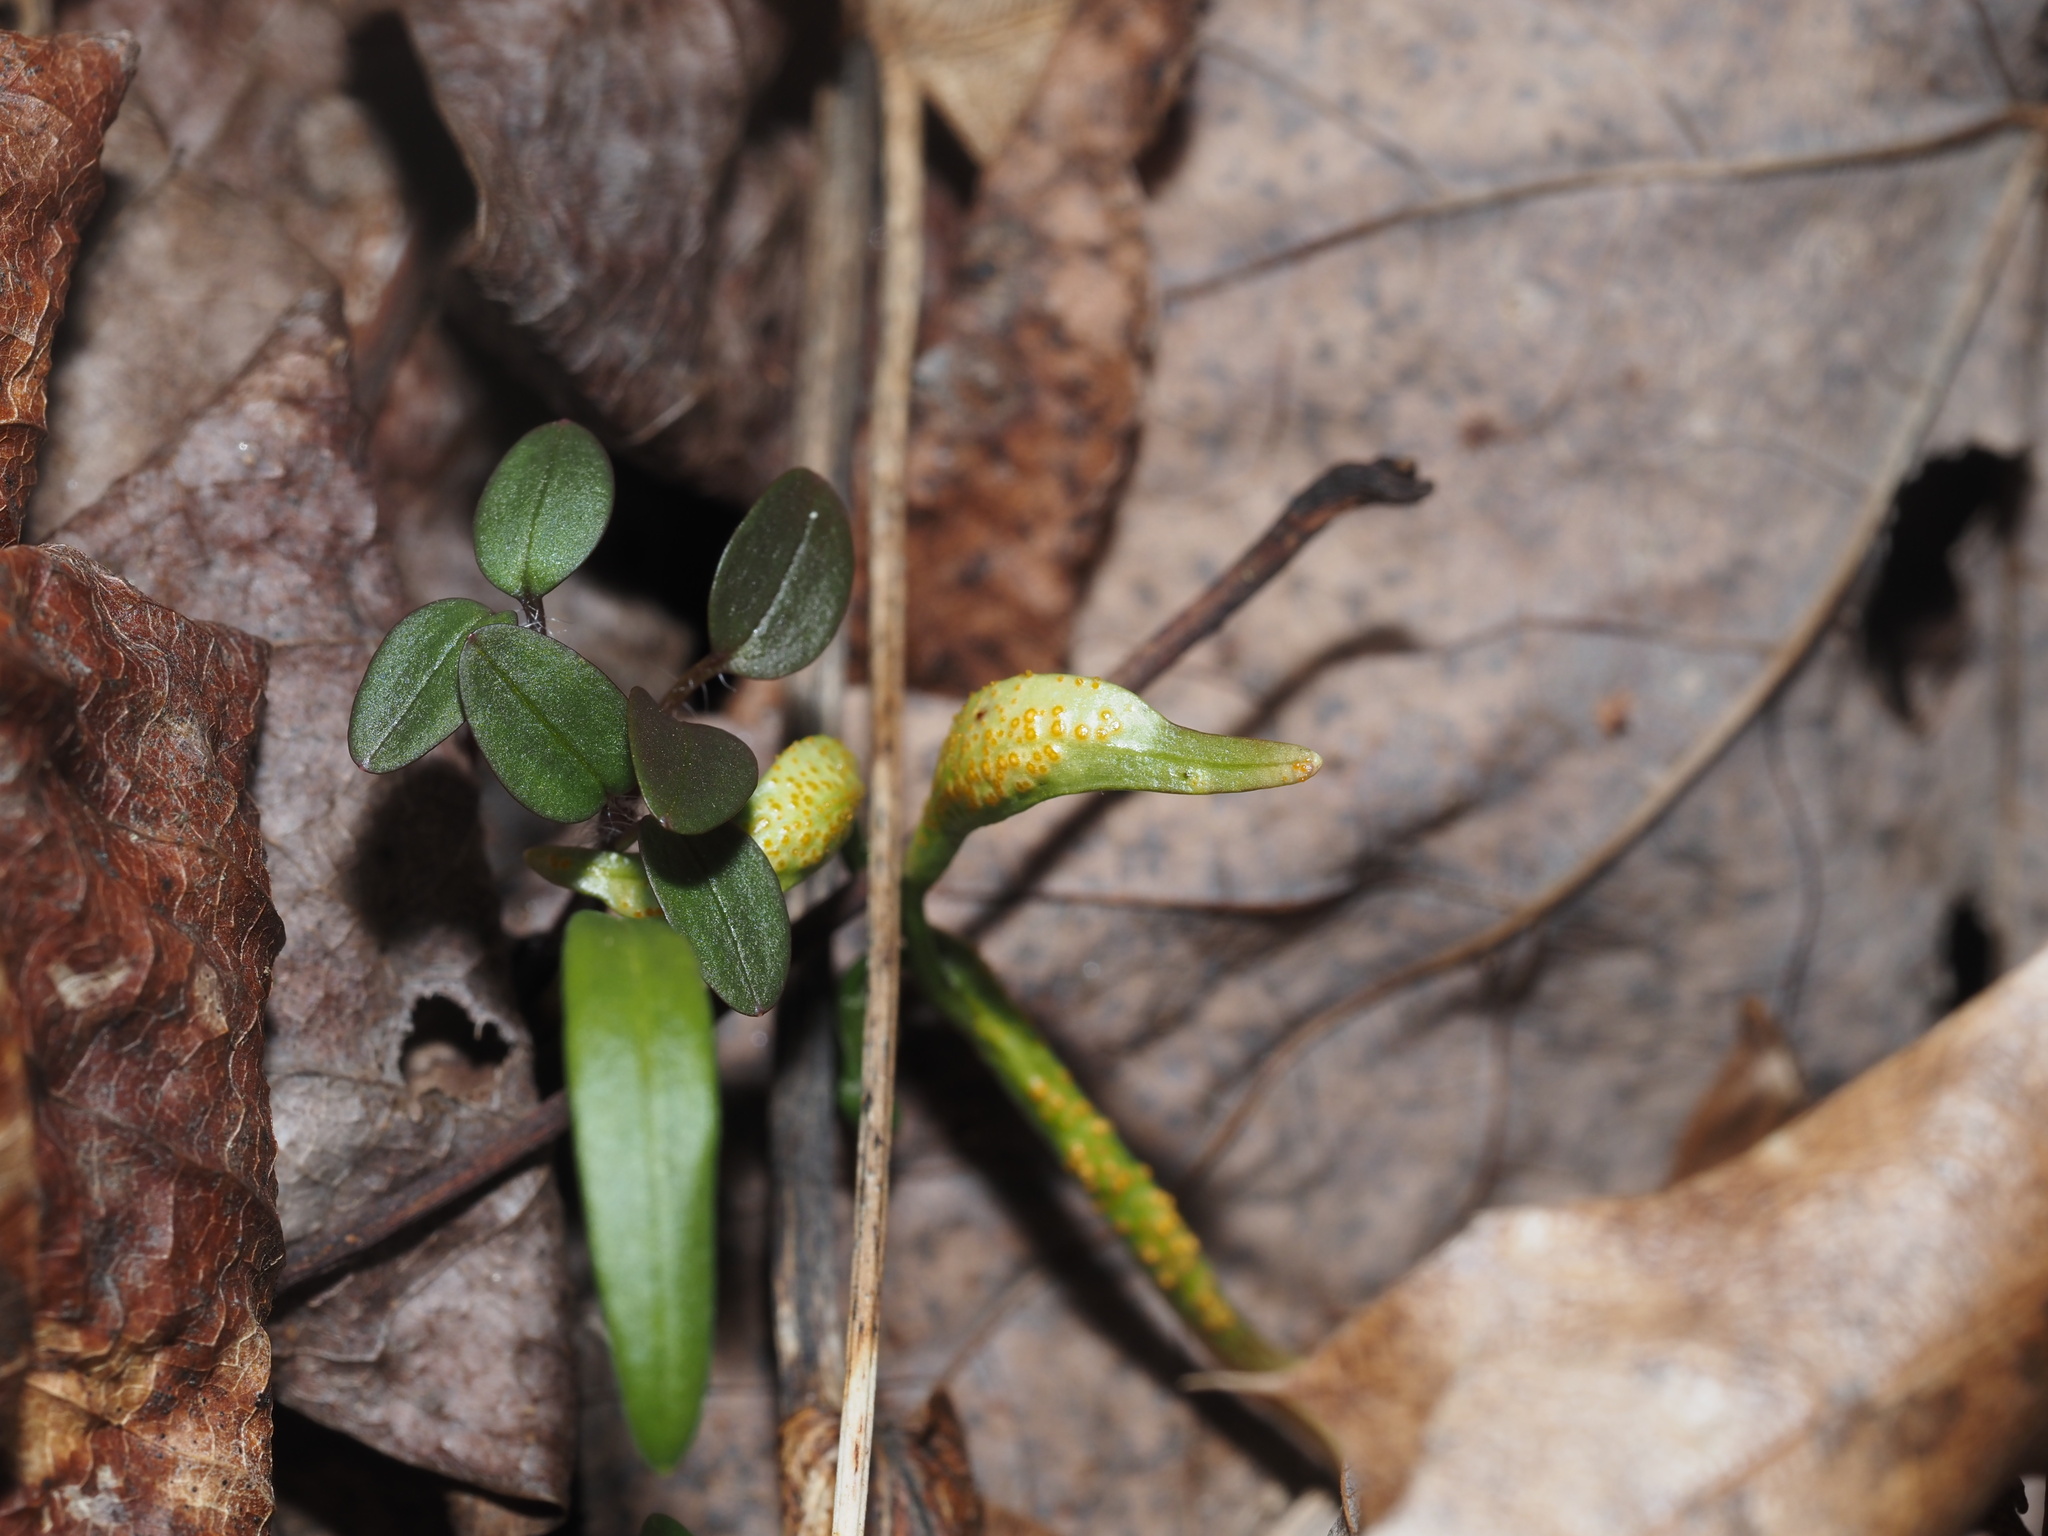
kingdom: Fungi
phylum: Basidiomycota
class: Pucciniomycetes
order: Pucciniales
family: Pucciniaceae
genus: Puccinia
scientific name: Puccinia mariae-wilsoniae
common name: Spring beauty rust
